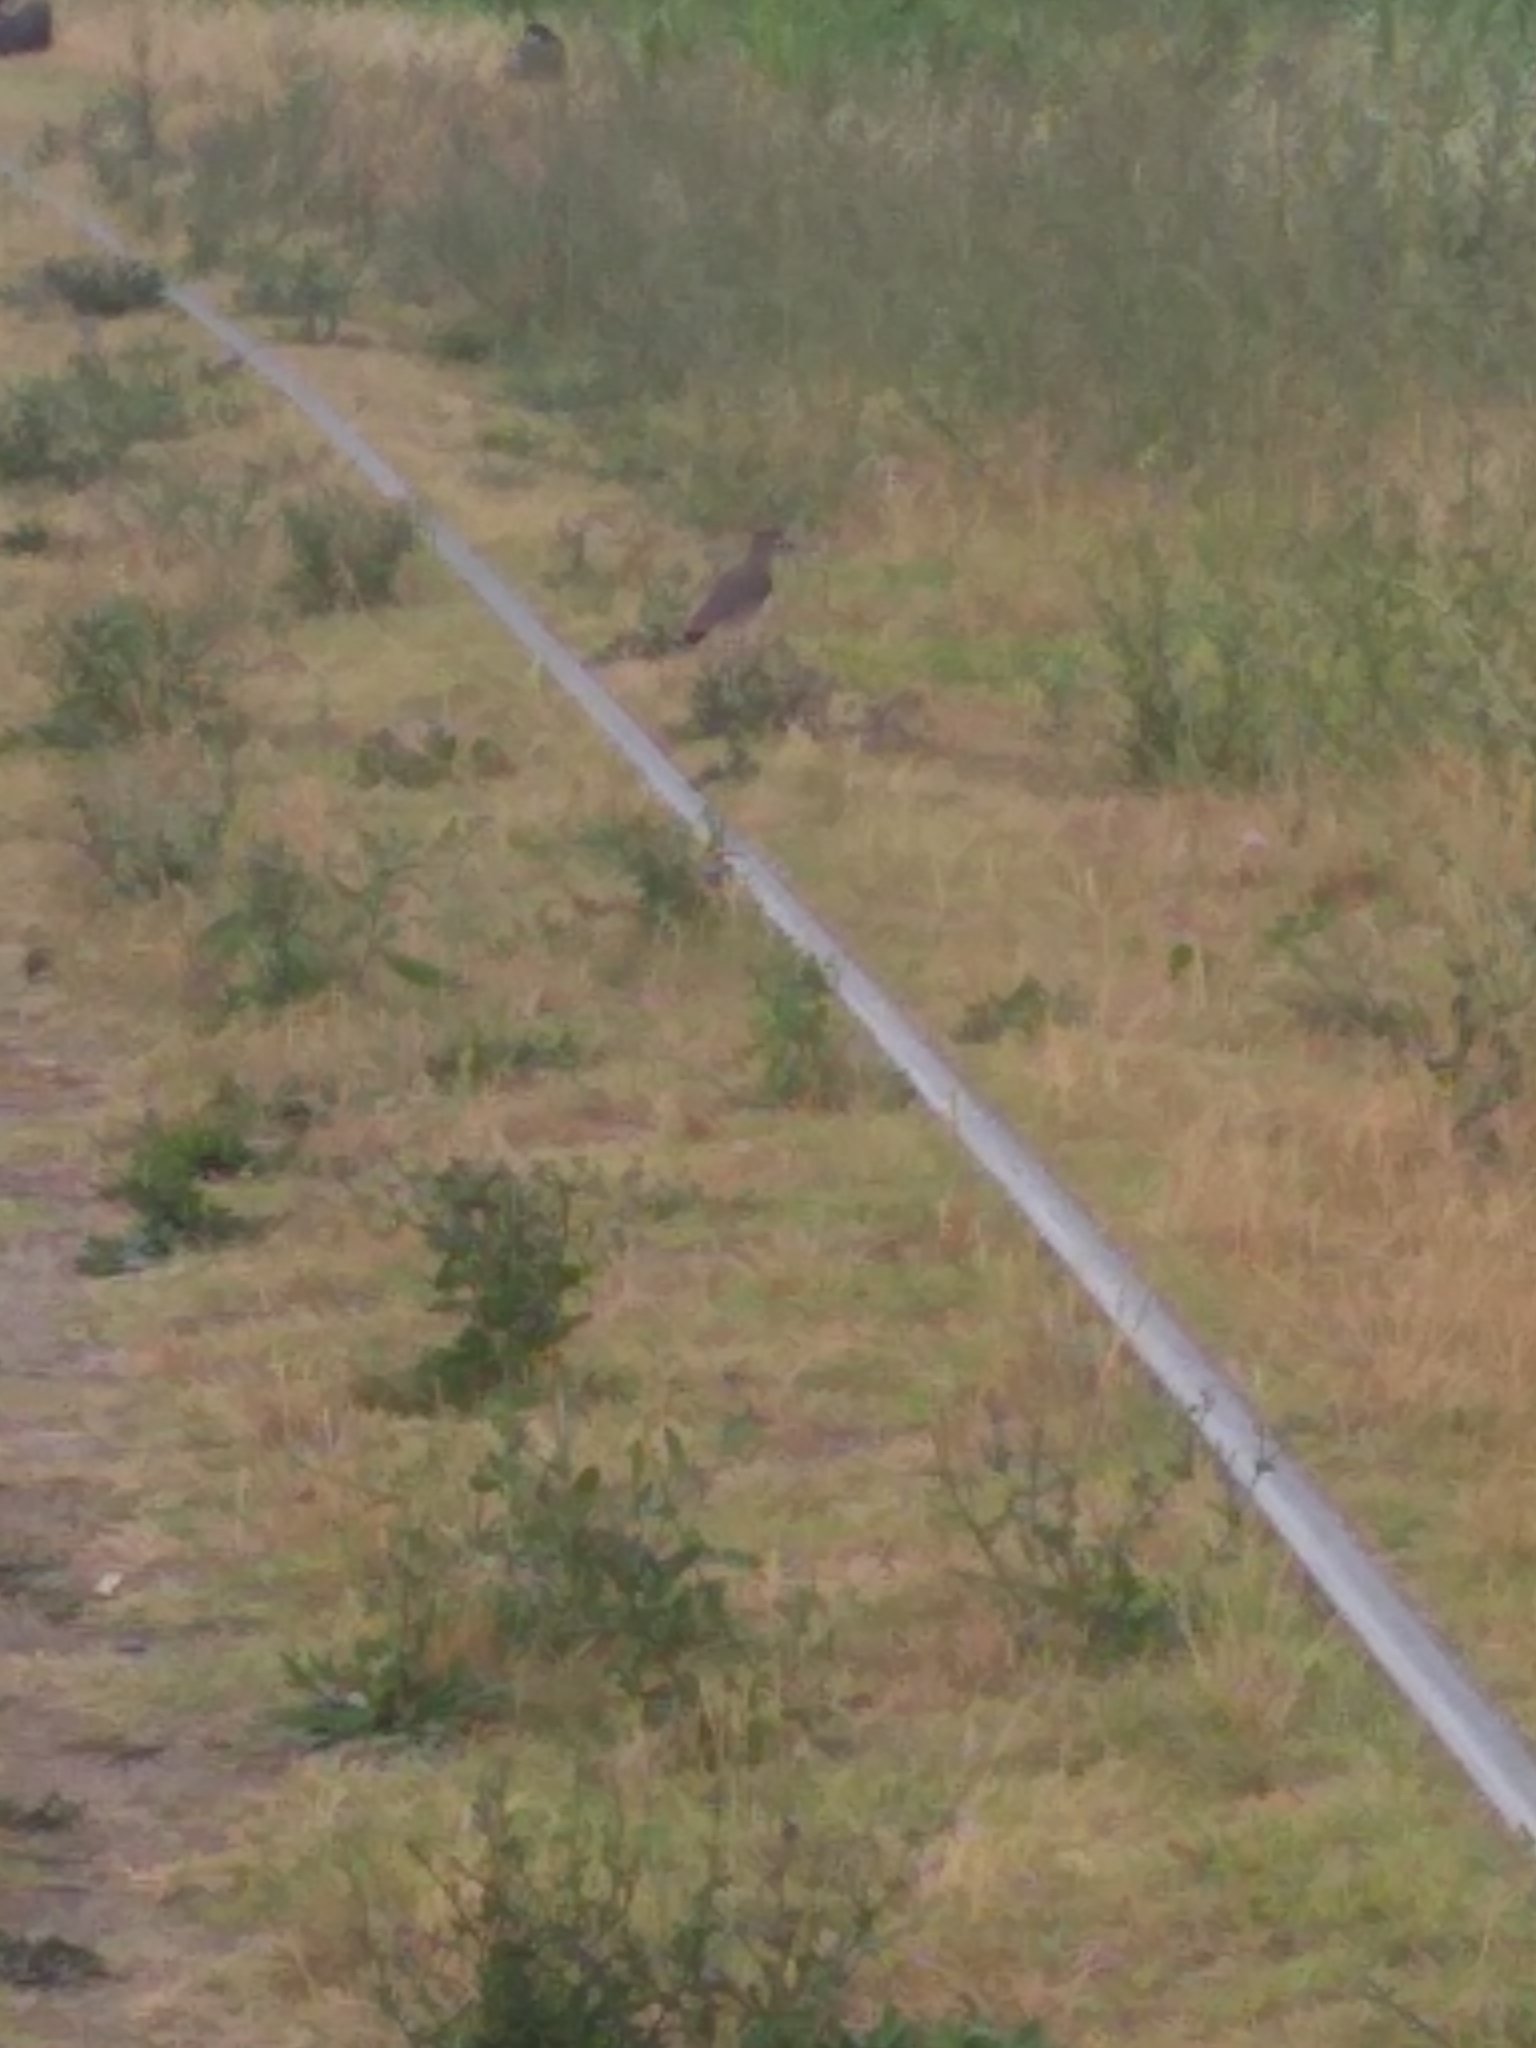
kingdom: Animalia
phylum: Chordata
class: Aves
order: Charadriiformes
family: Charadriidae
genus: Vanellus
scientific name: Vanellus chilensis
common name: Southern lapwing
